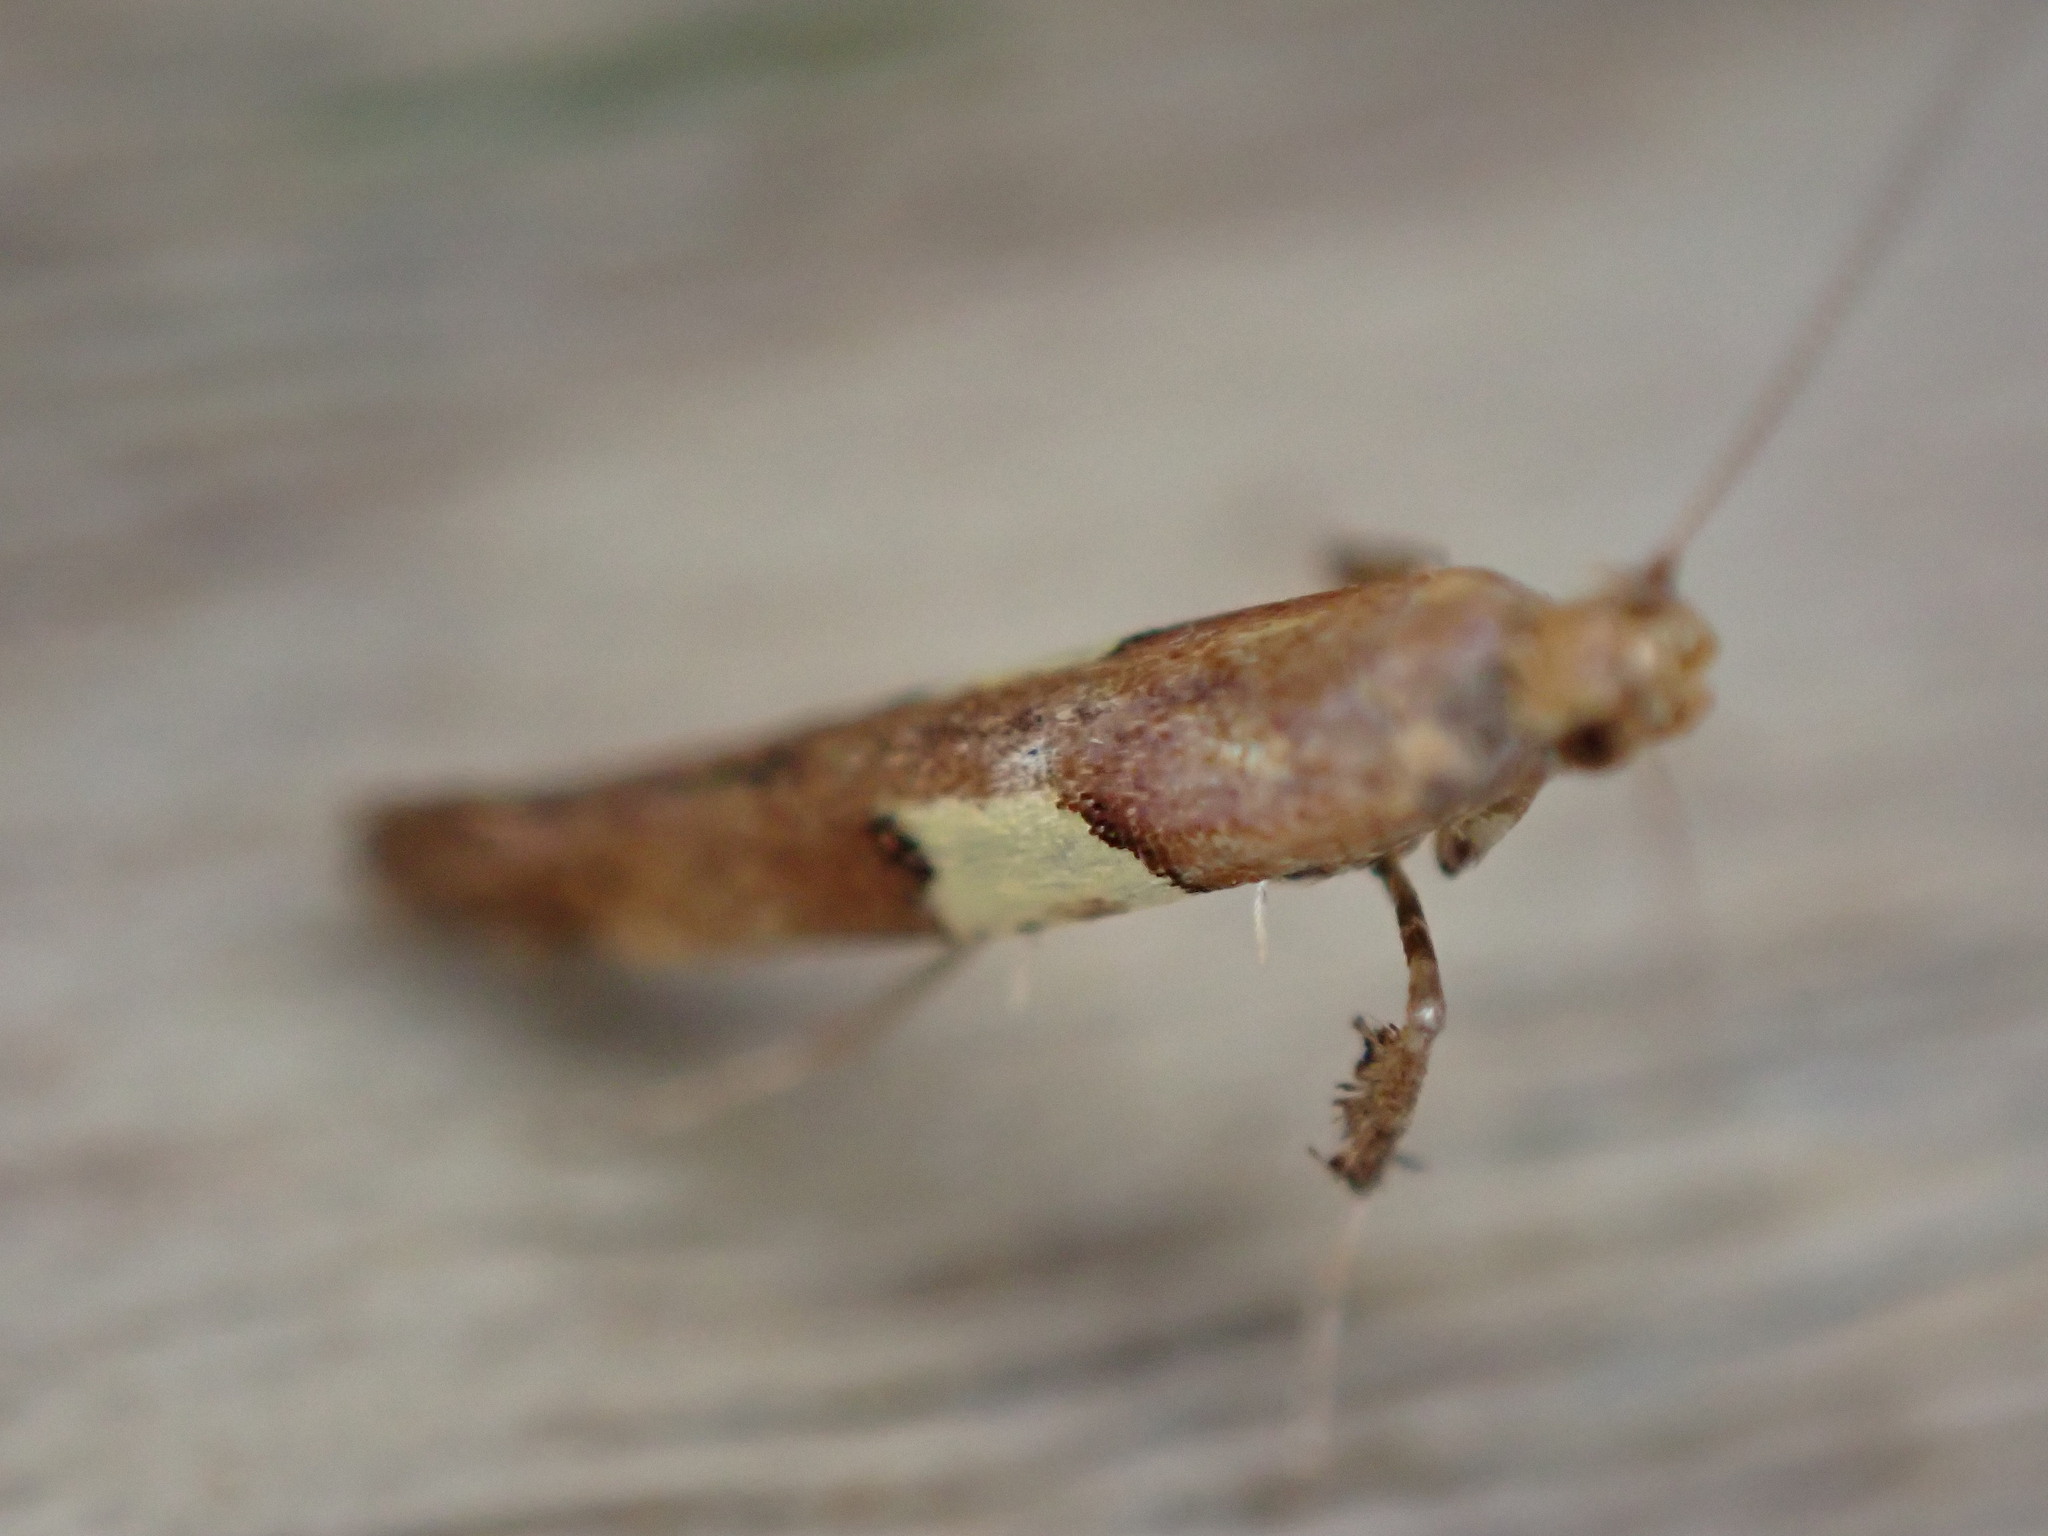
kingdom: Animalia
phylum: Arthropoda
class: Insecta
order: Lepidoptera
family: Gracillariidae
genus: Caloptilia
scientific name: Caloptilia semifascia
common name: Maple slender
